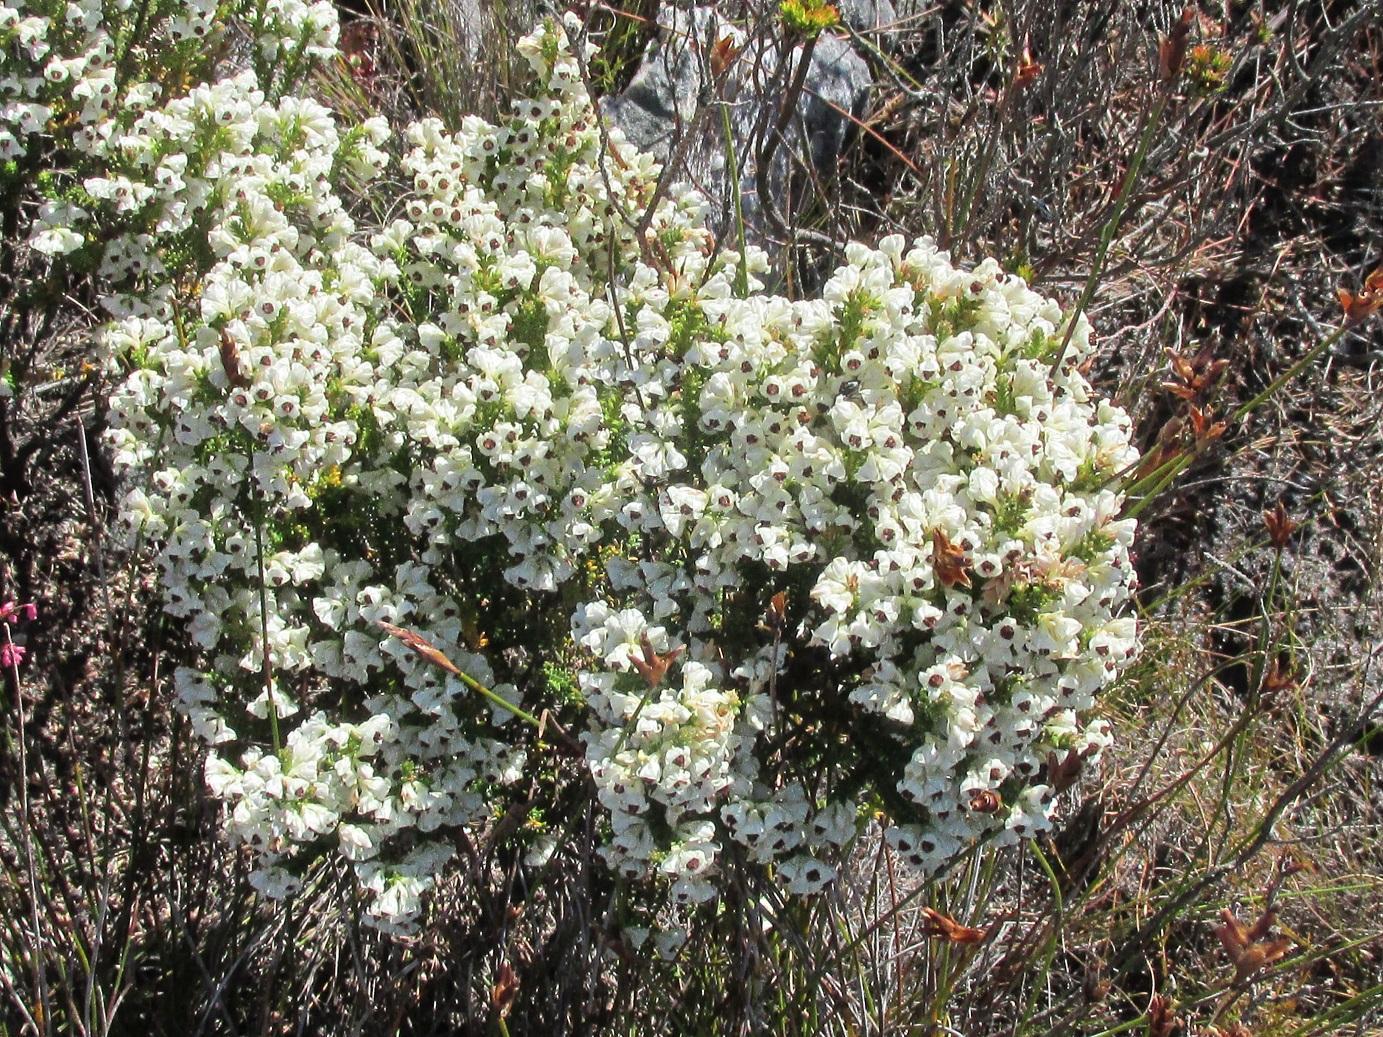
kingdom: Plantae
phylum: Tracheophyta
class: Magnoliopsida
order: Ericales
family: Ericaceae
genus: Erica
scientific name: Erica calycina
